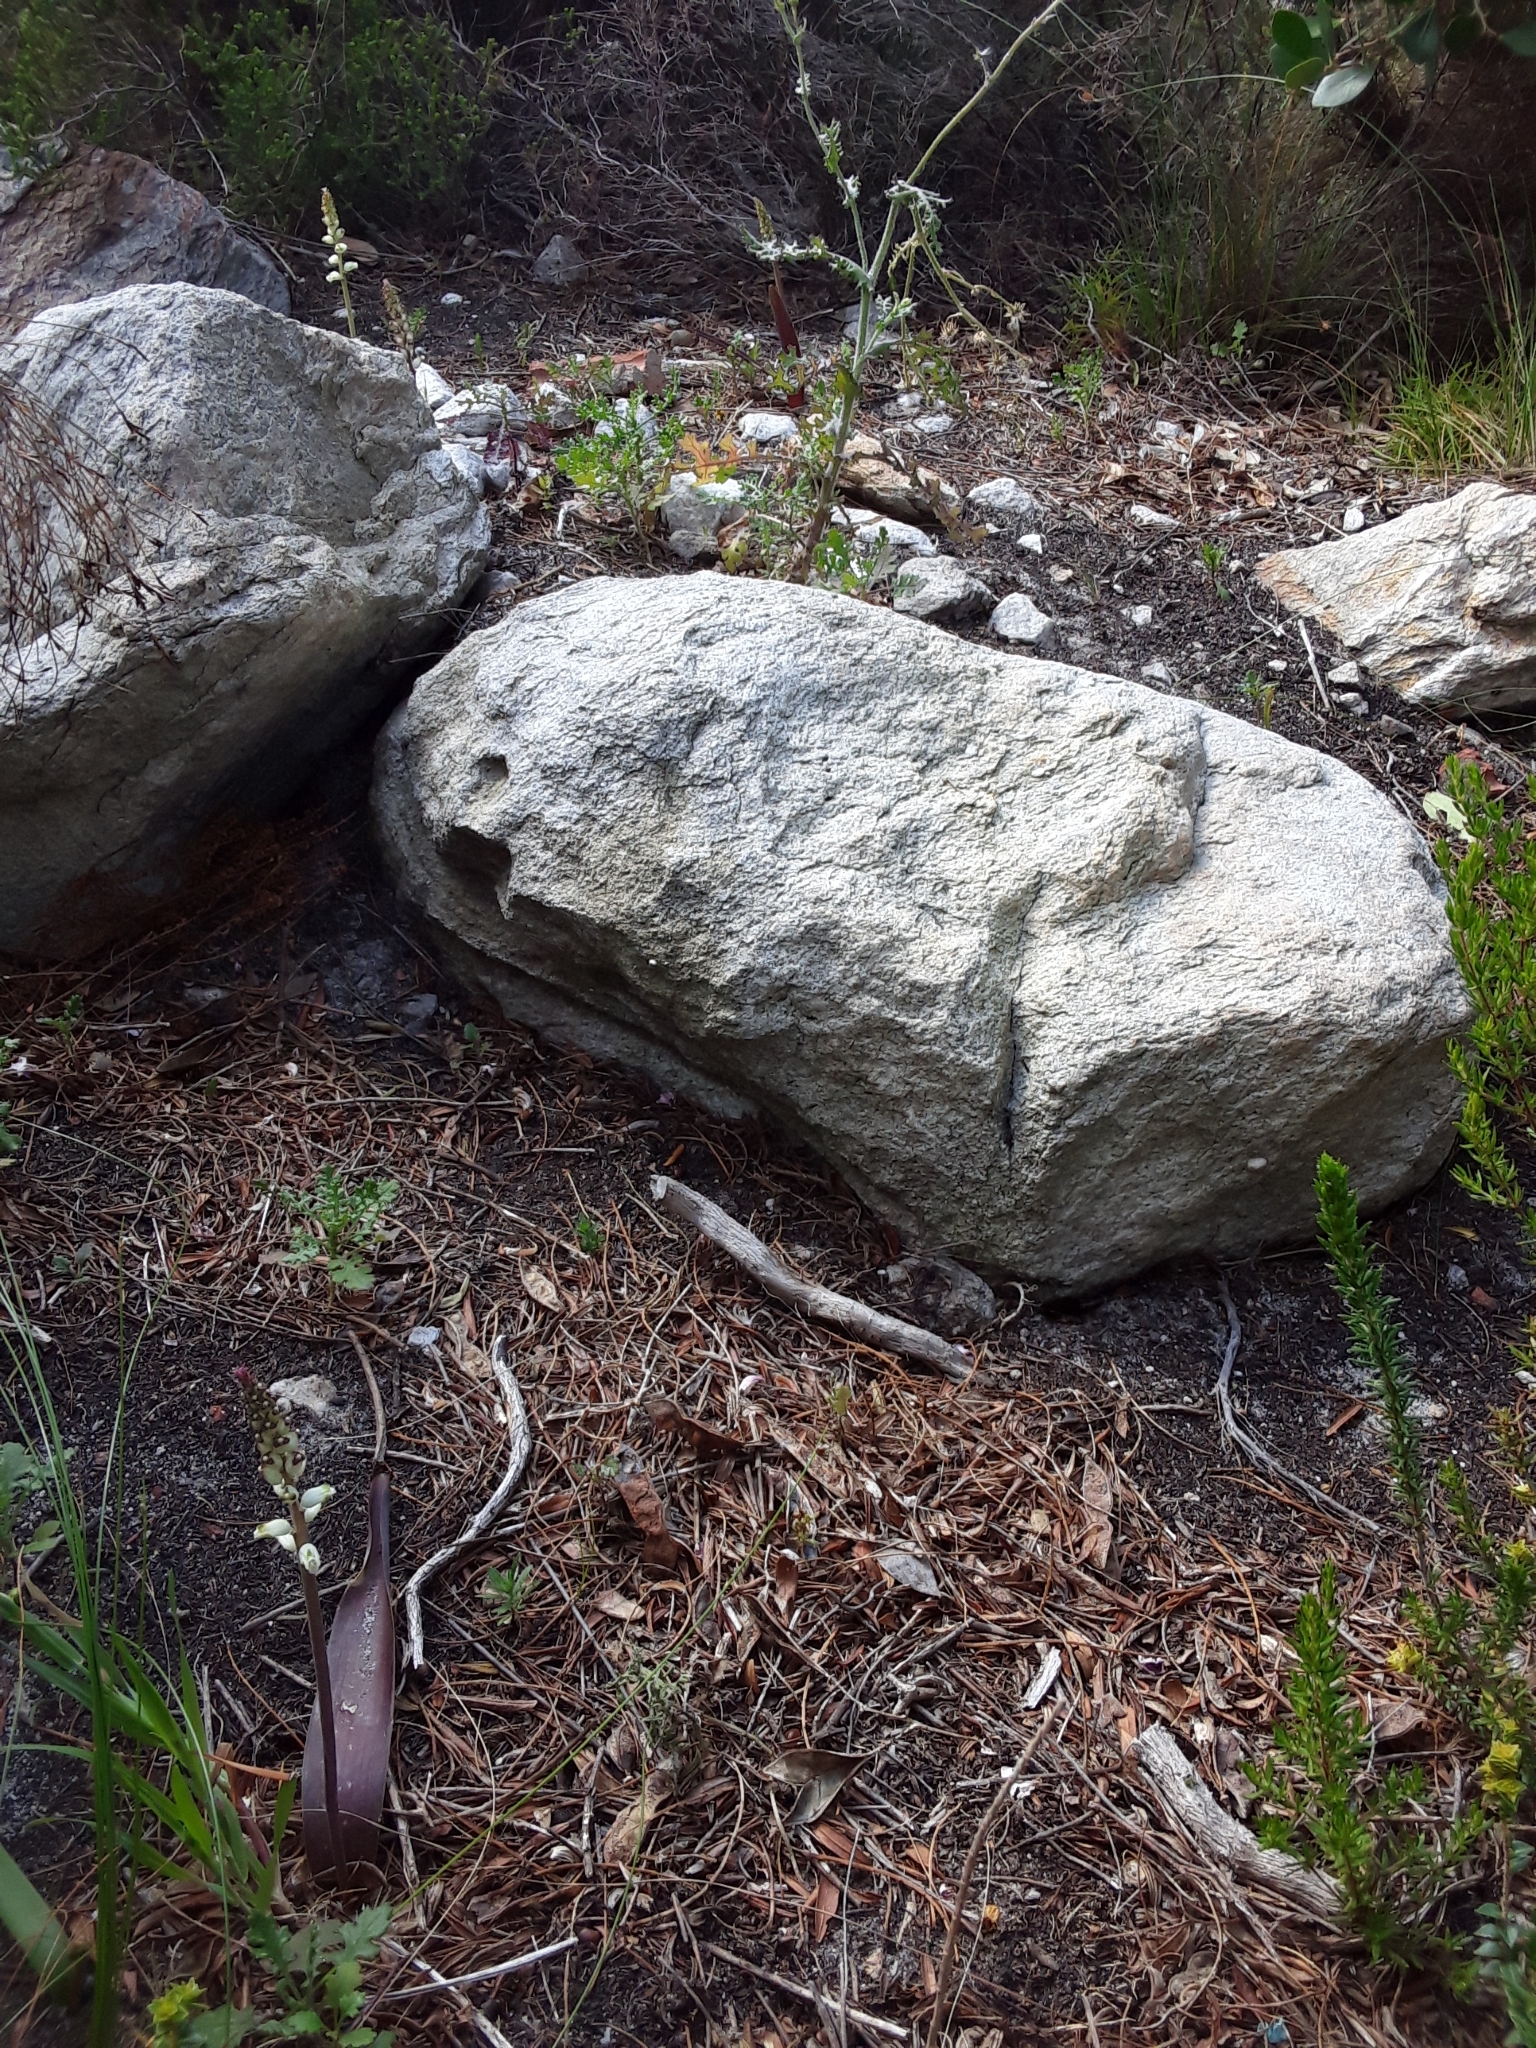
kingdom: Plantae
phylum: Tracheophyta
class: Liliopsida
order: Asparagales
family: Asparagaceae
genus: Lachenalia
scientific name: Lachenalia peersii
